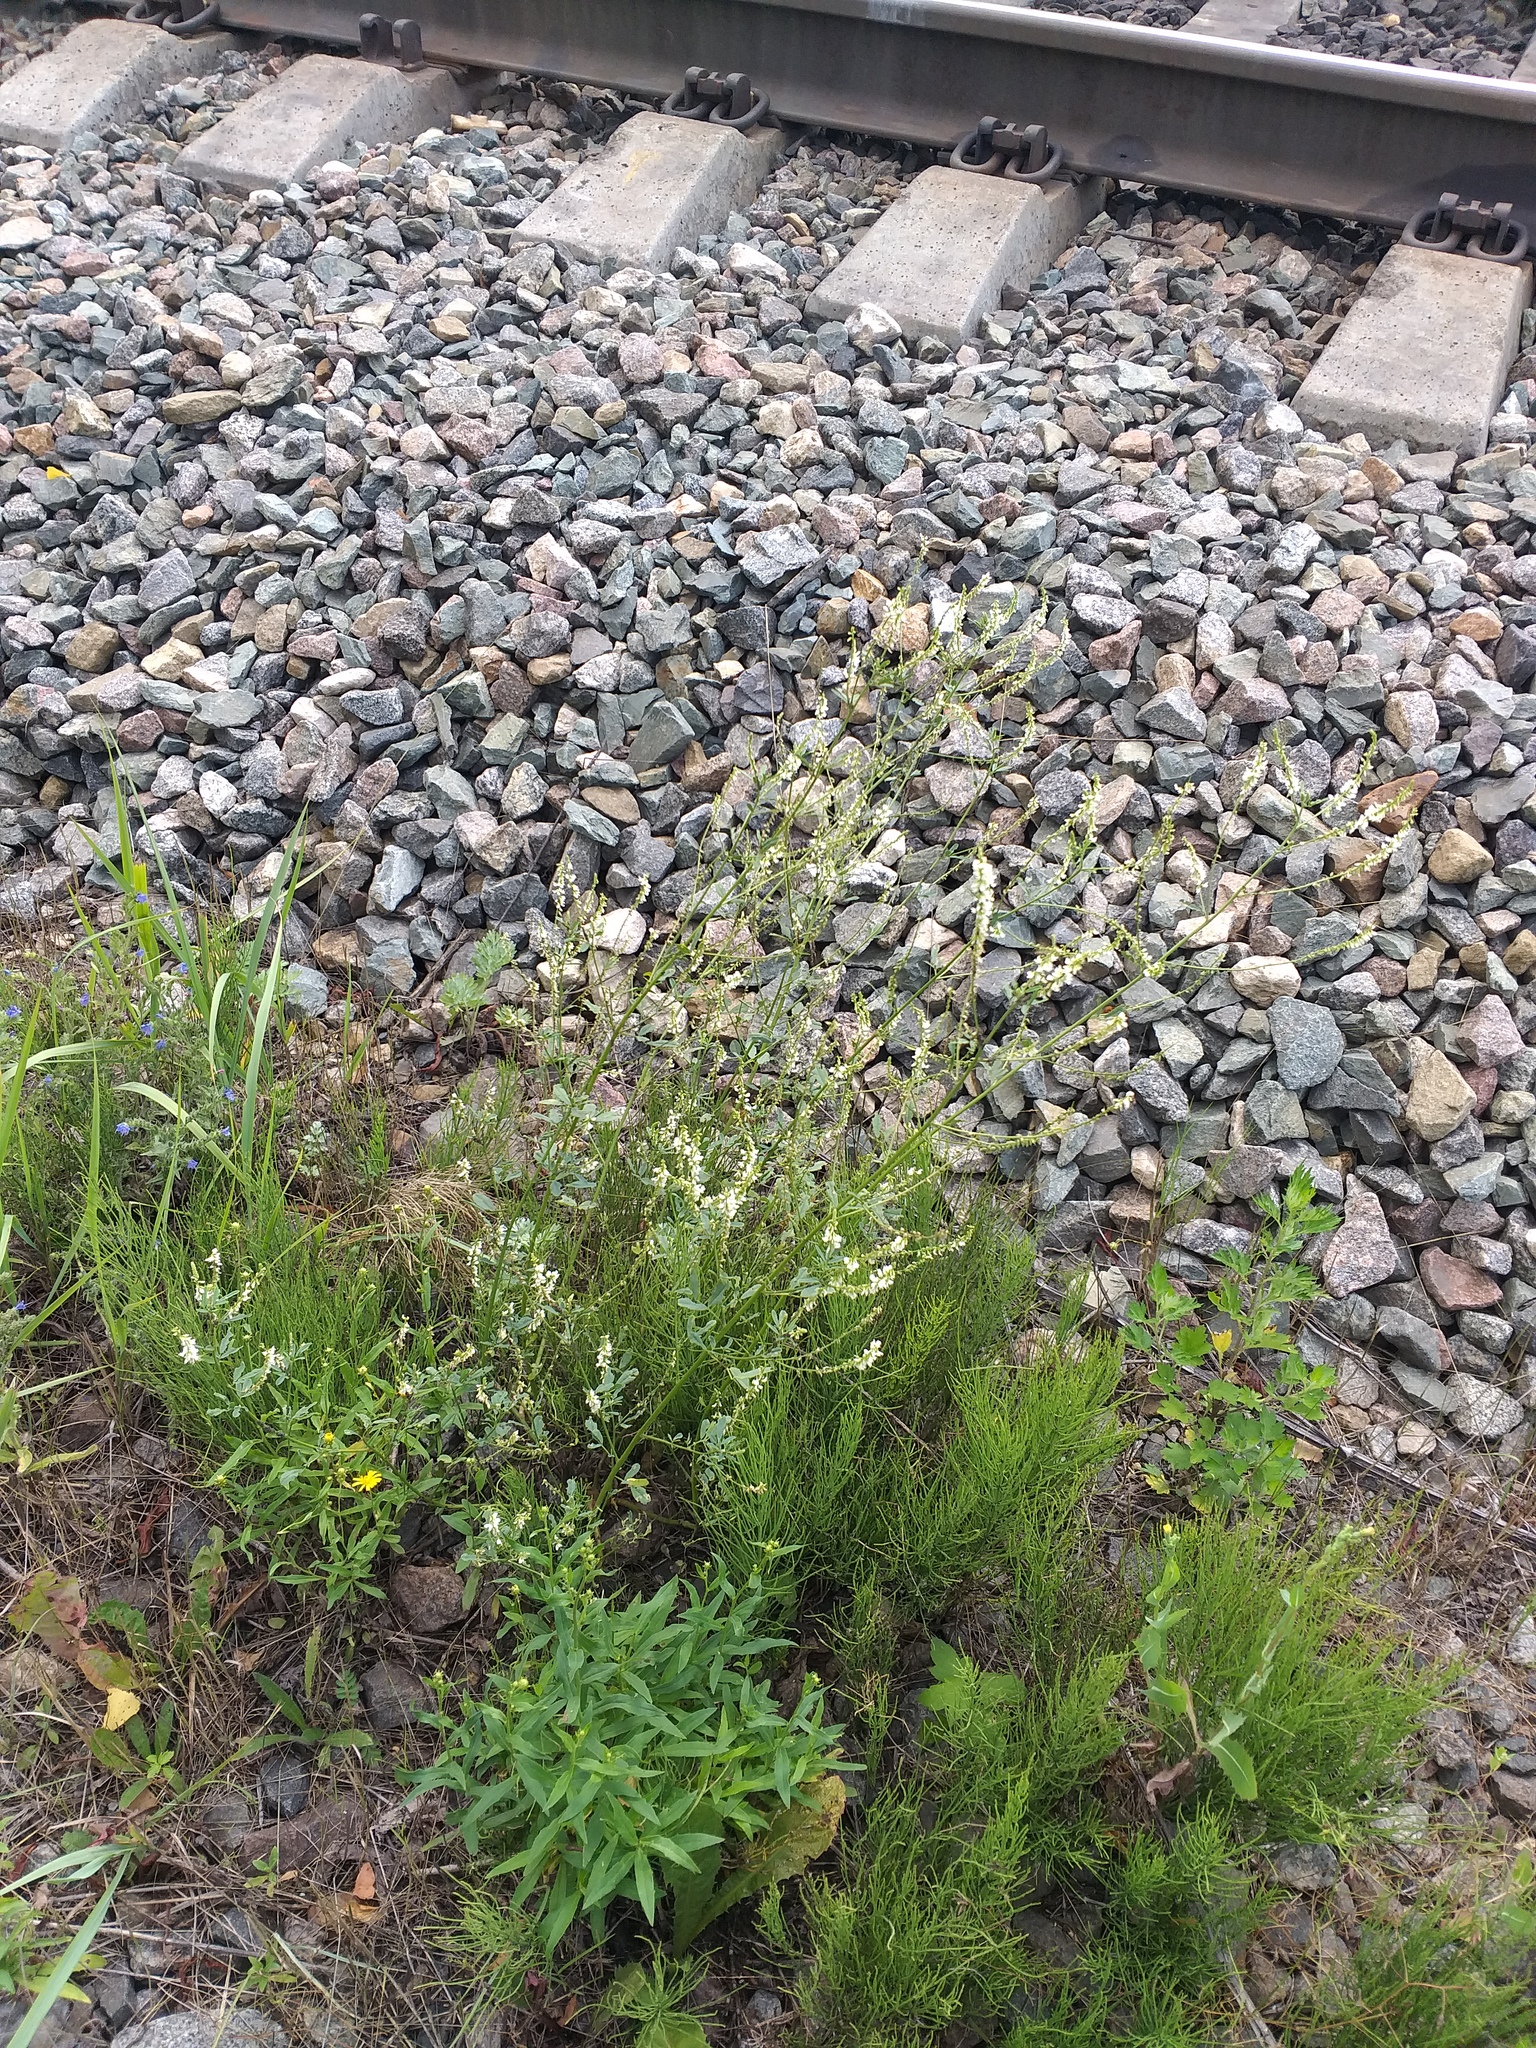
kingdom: Plantae
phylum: Tracheophyta
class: Magnoliopsida
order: Fabales
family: Fabaceae
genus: Melilotus
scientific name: Melilotus albus
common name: White melilot
